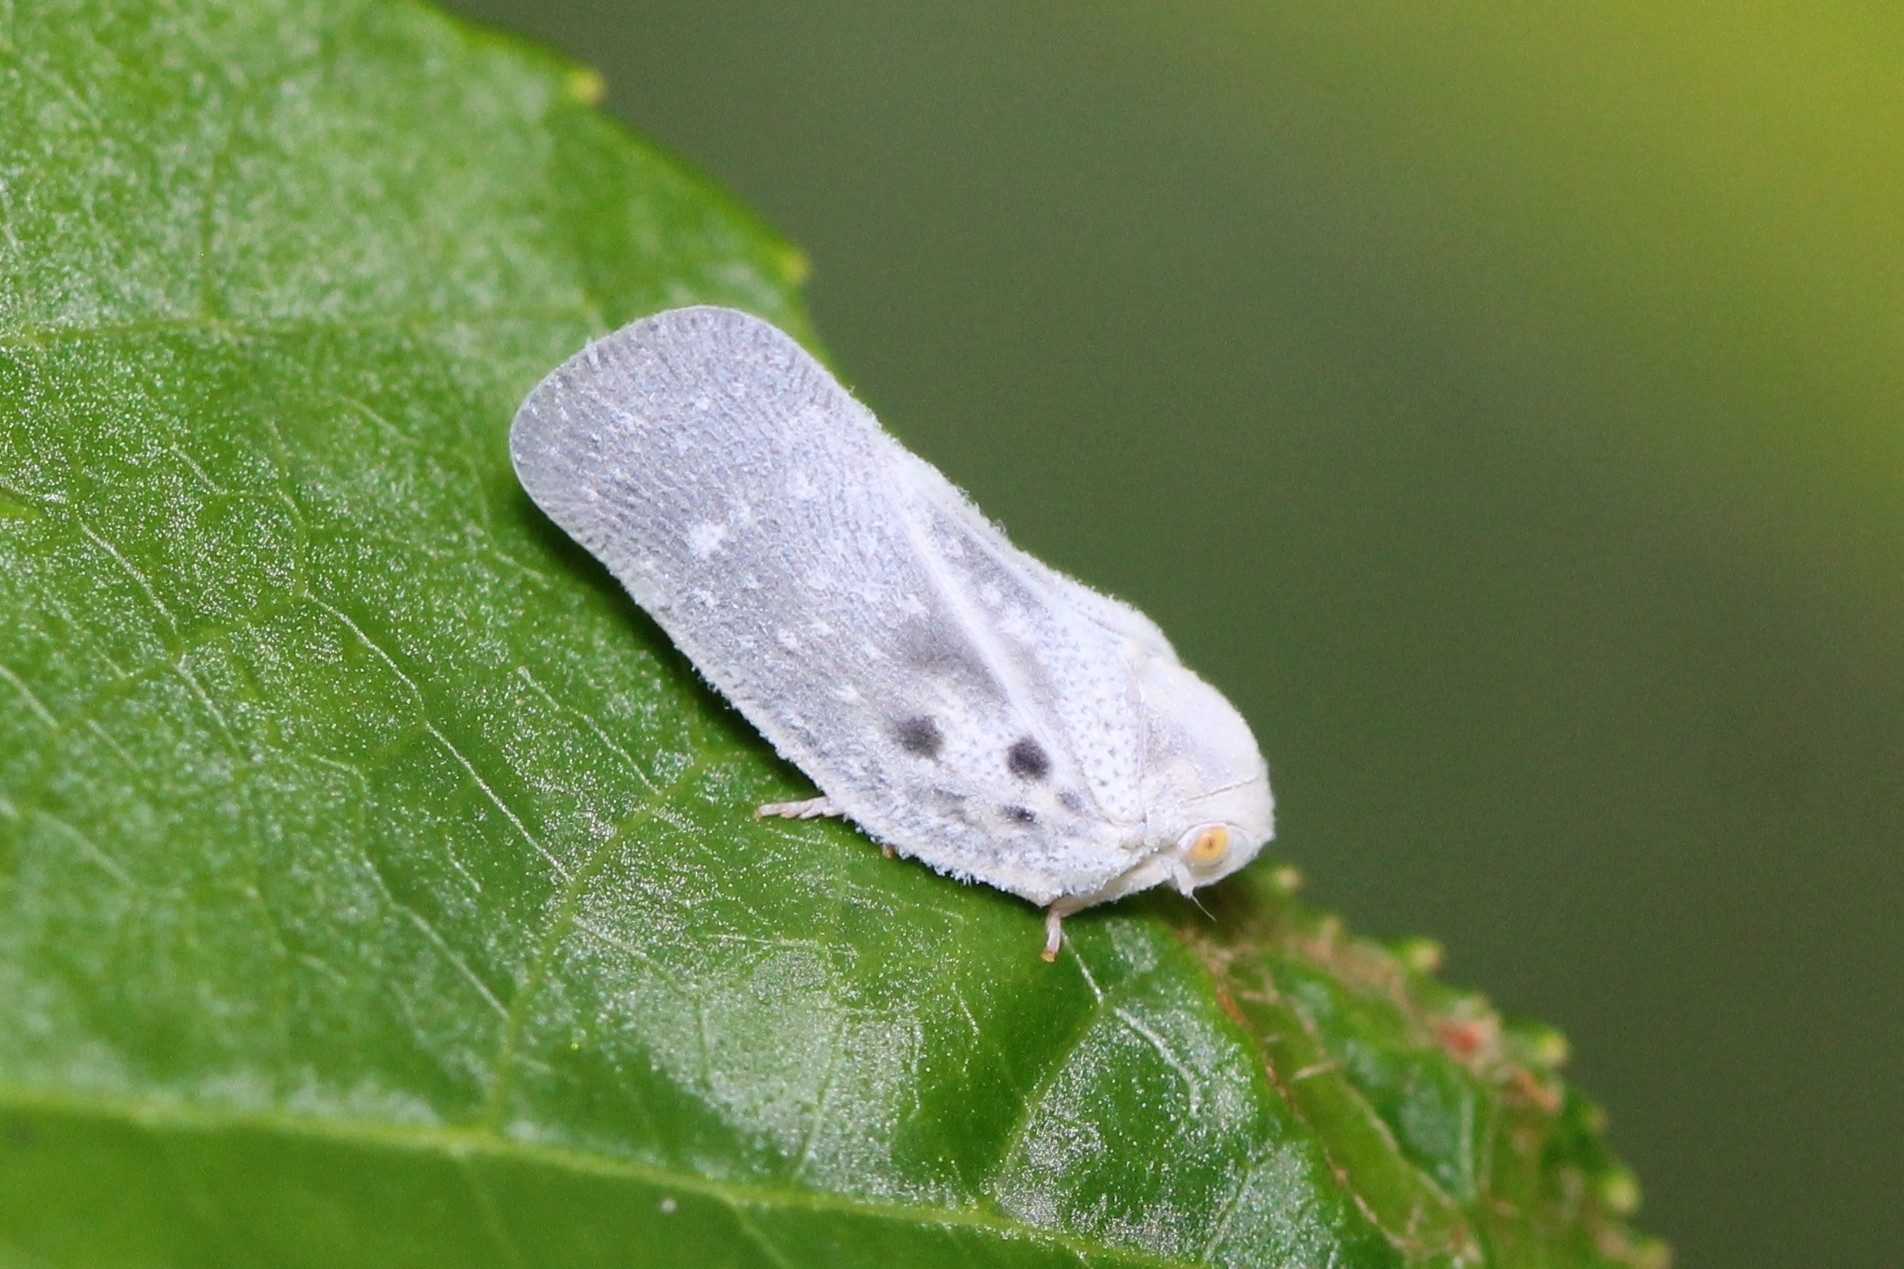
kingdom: Animalia
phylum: Arthropoda
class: Insecta
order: Hemiptera
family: Flatidae
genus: Metcalfa
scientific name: Metcalfa pruinosa
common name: Citrus flatid planthopper
